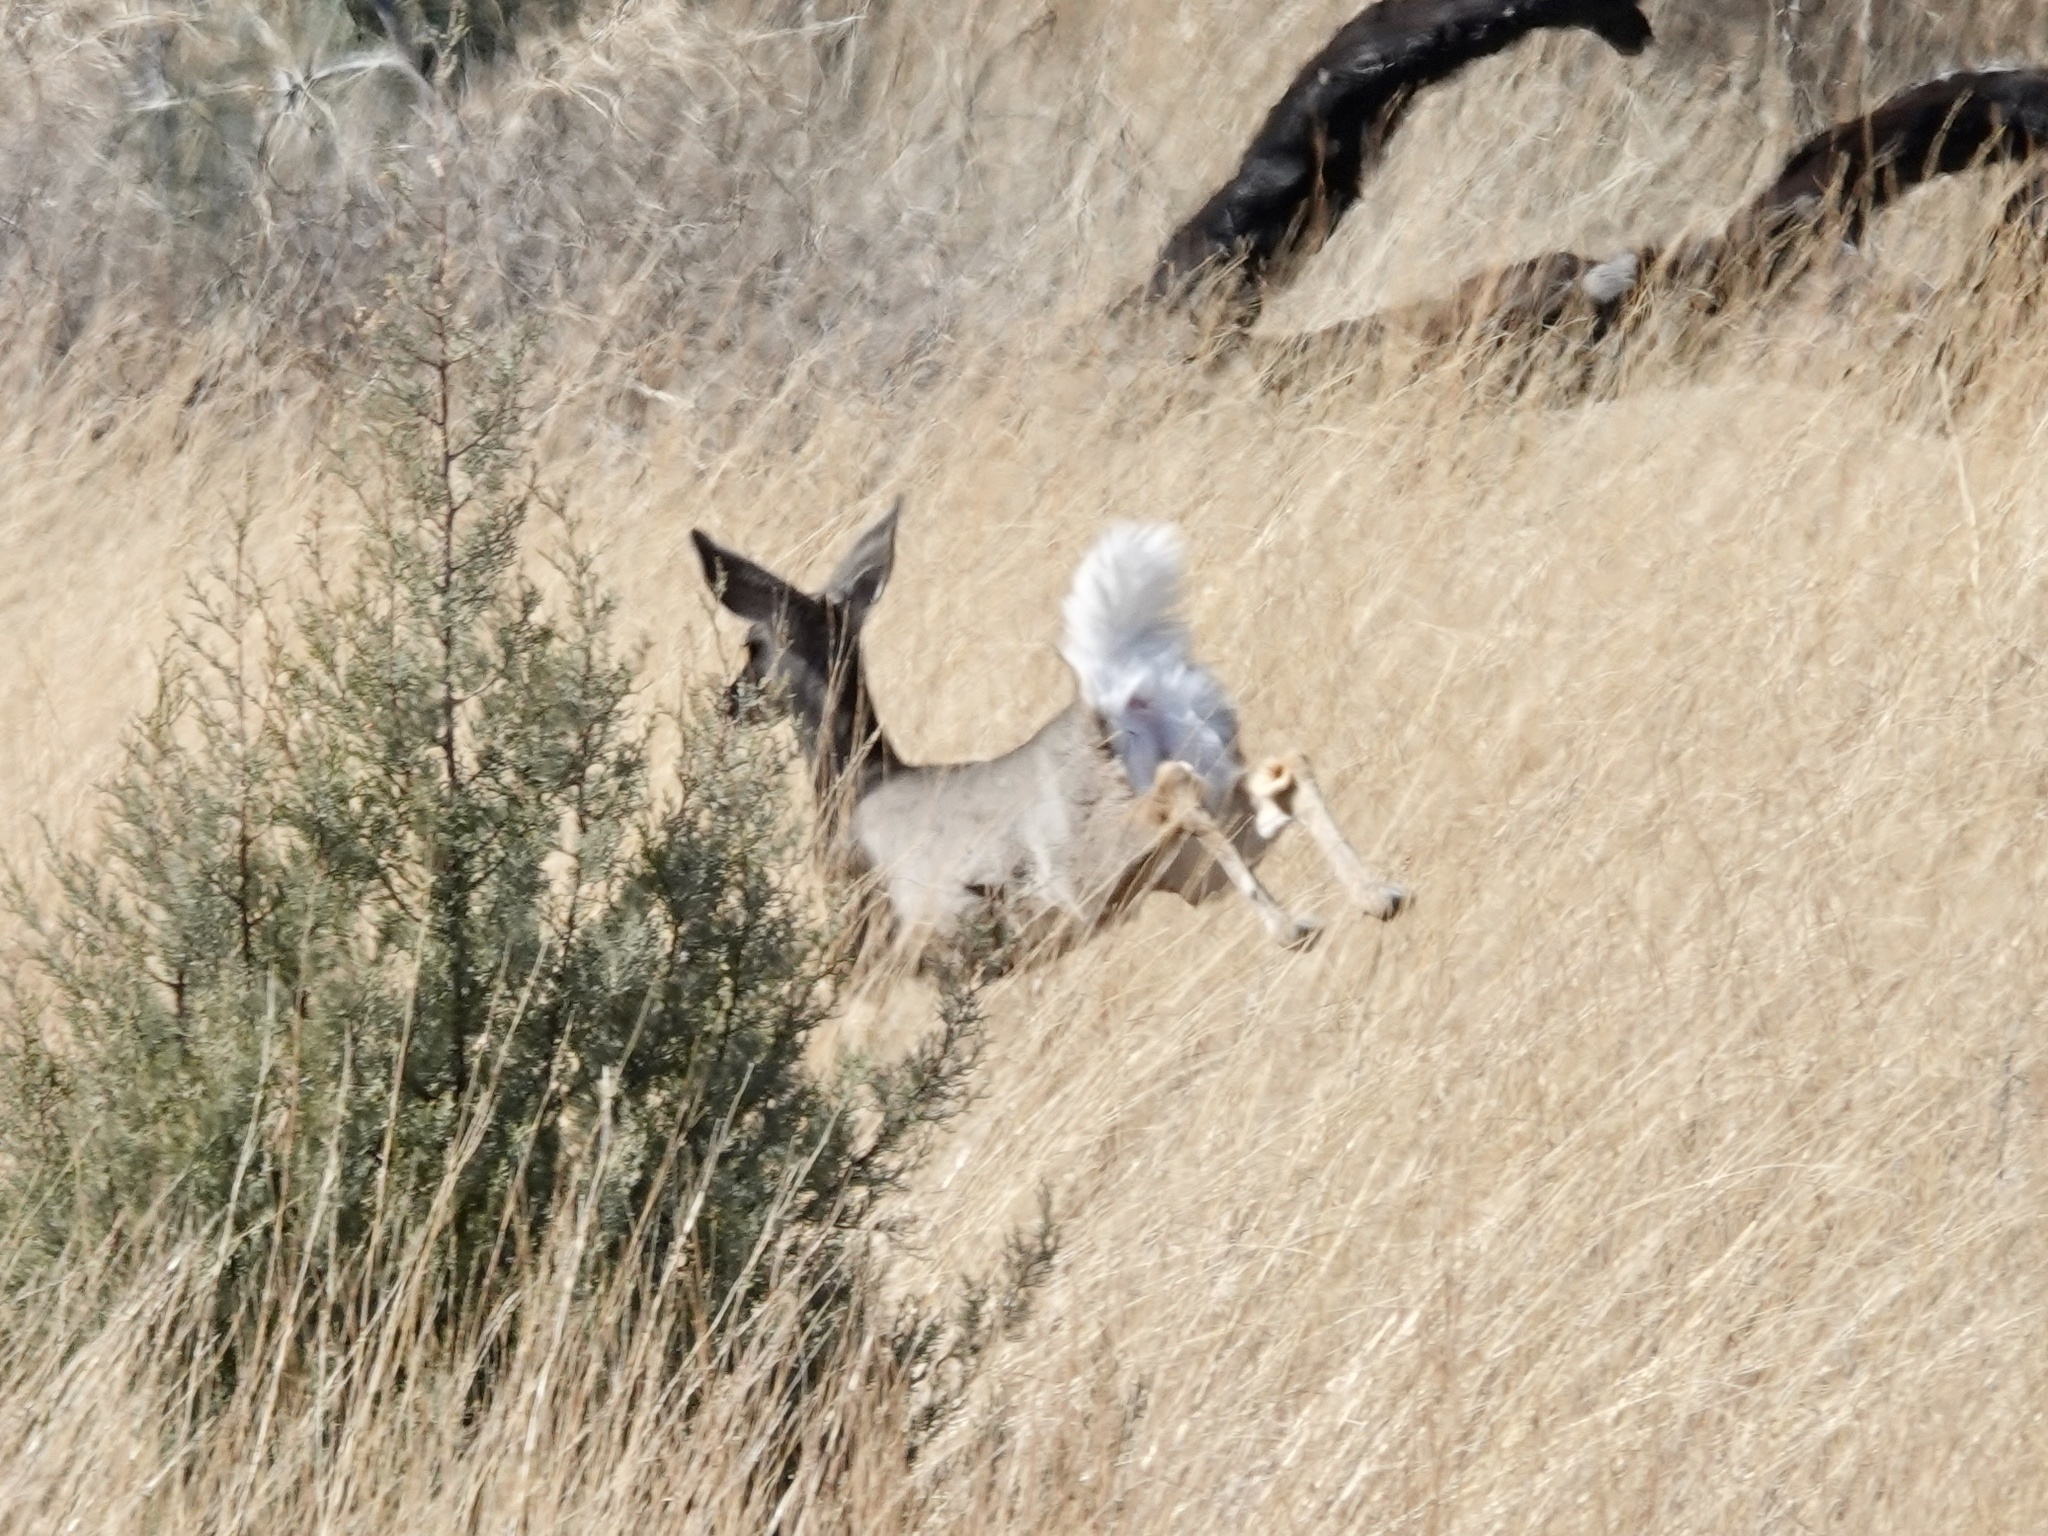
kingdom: Animalia
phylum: Chordata
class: Mammalia
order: Artiodactyla
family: Cervidae
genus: Odocoileus
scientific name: Odocoileus virginianus
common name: White-tailed deer
